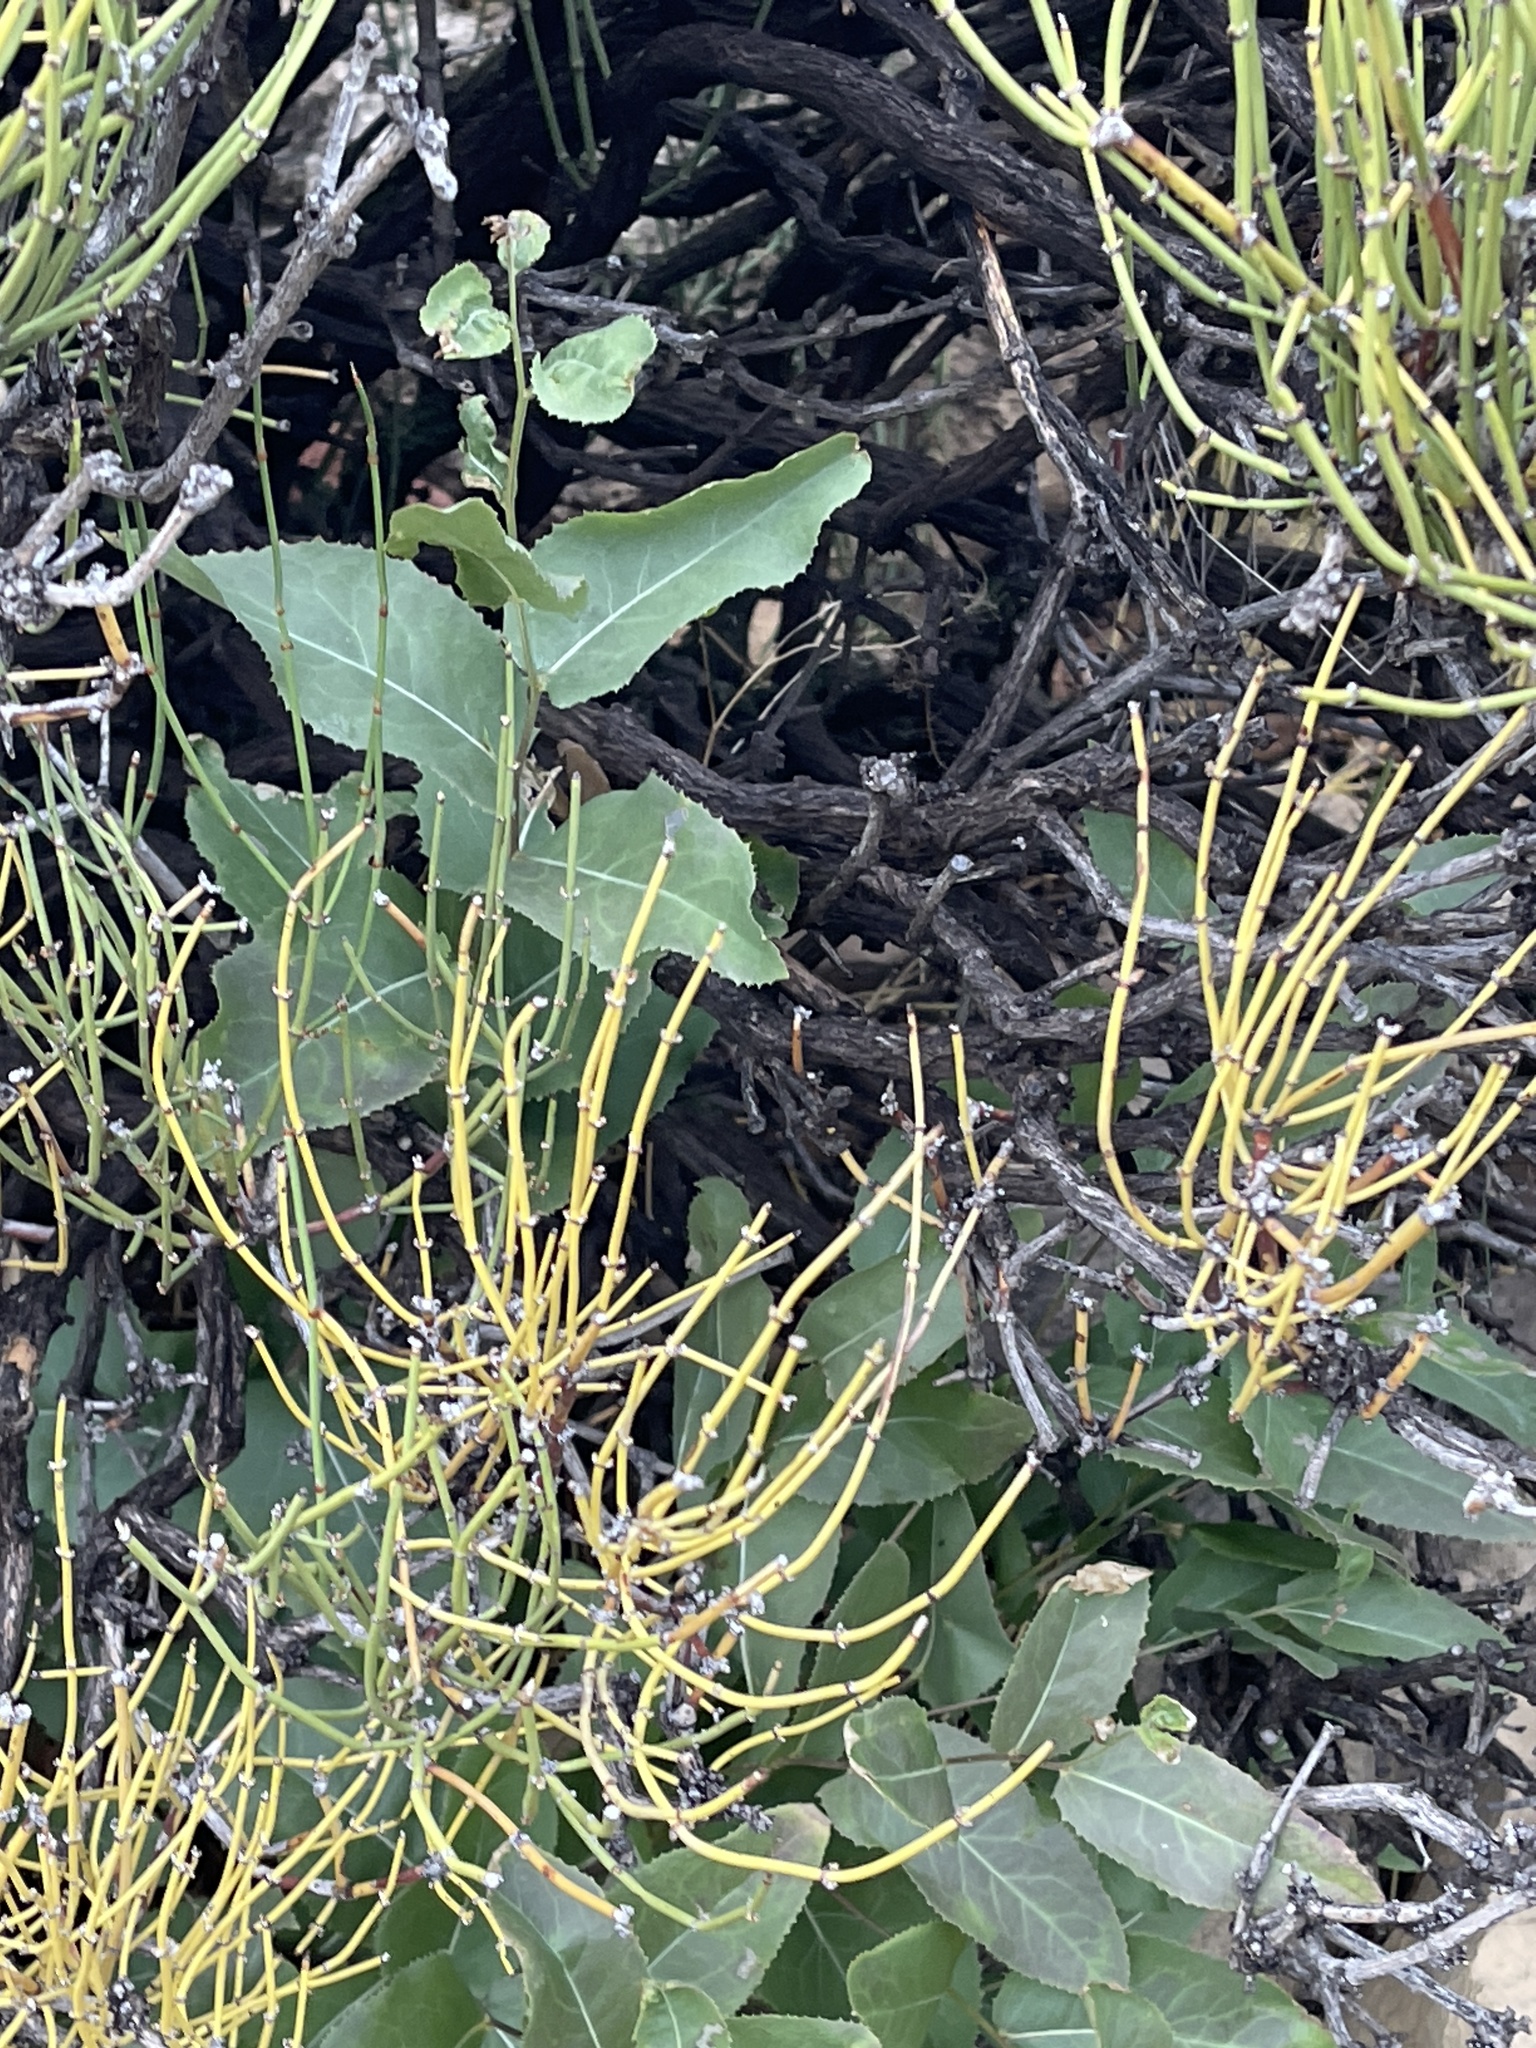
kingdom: Plantae
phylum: Tracheophyta
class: Magnoliopsida
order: Asterales
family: Asteraceae
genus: Acourtia
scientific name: Acourtia wrightii
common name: Brownfoot
